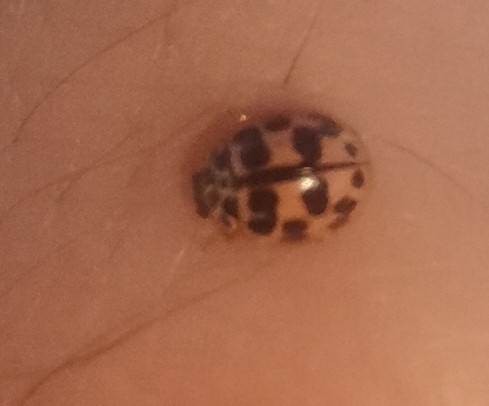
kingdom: Animalia
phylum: Arthropoda
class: Insecta
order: Coleoptera
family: Coccinellidae
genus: Oenopia
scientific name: Oenopia conglobata
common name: Ladybird beetle
